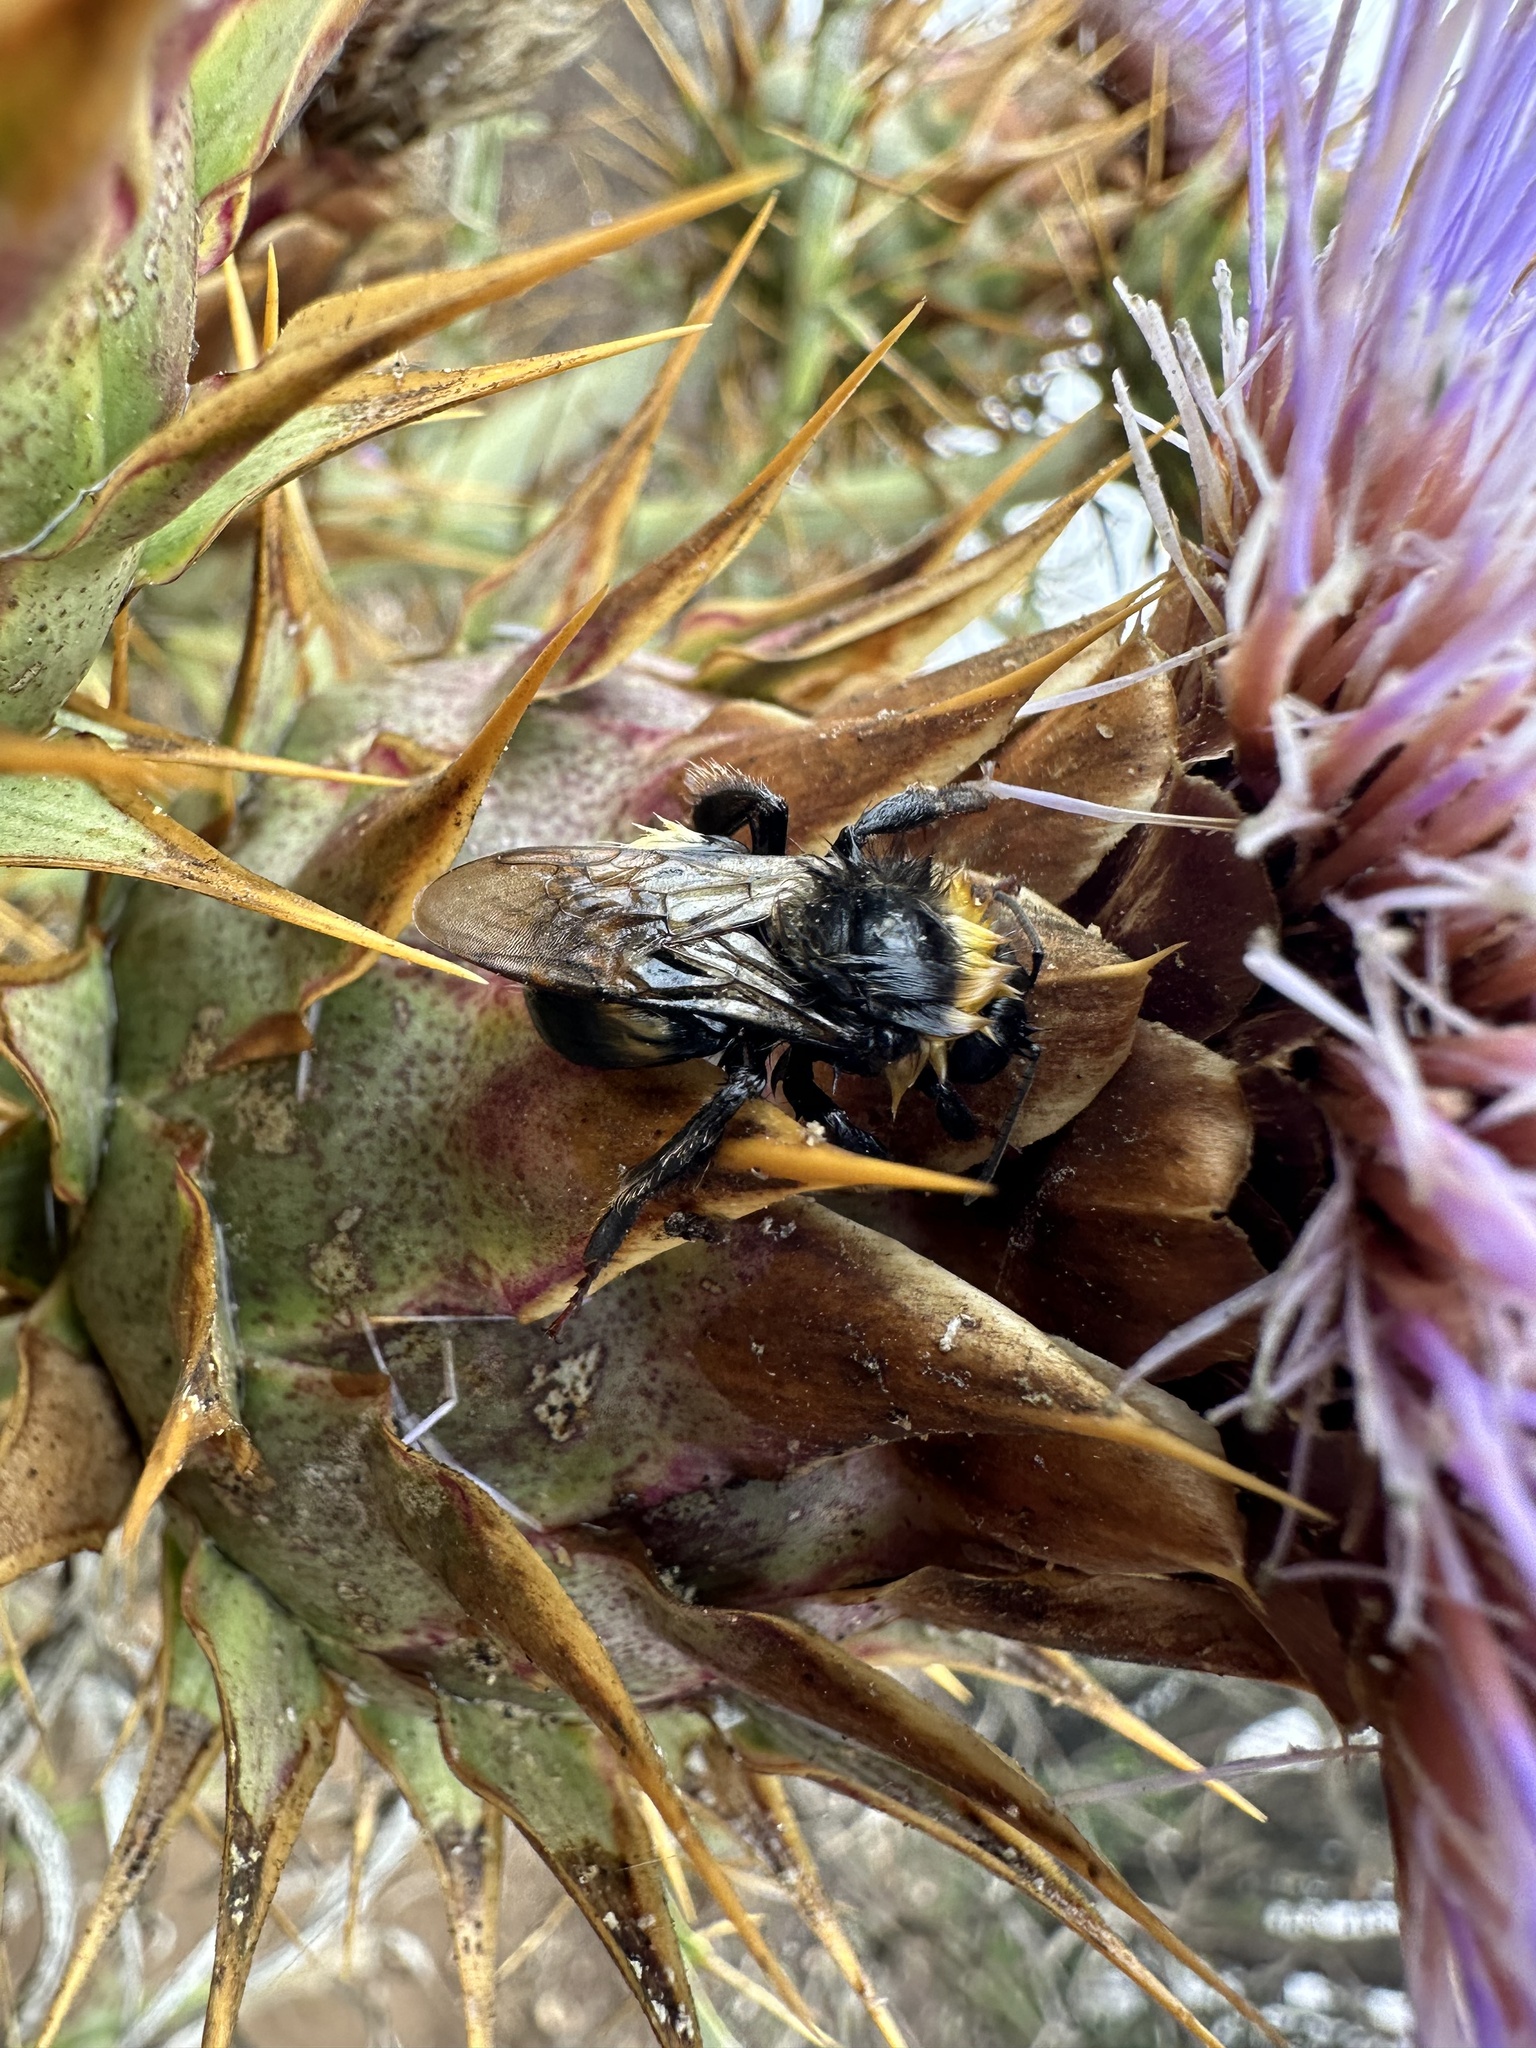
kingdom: Animalia
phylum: Arthropoda
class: Insecta
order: Hymenoptera
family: Apidae
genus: Bombus
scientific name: Bombus terrestris
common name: Buff-tailed bumblebee
